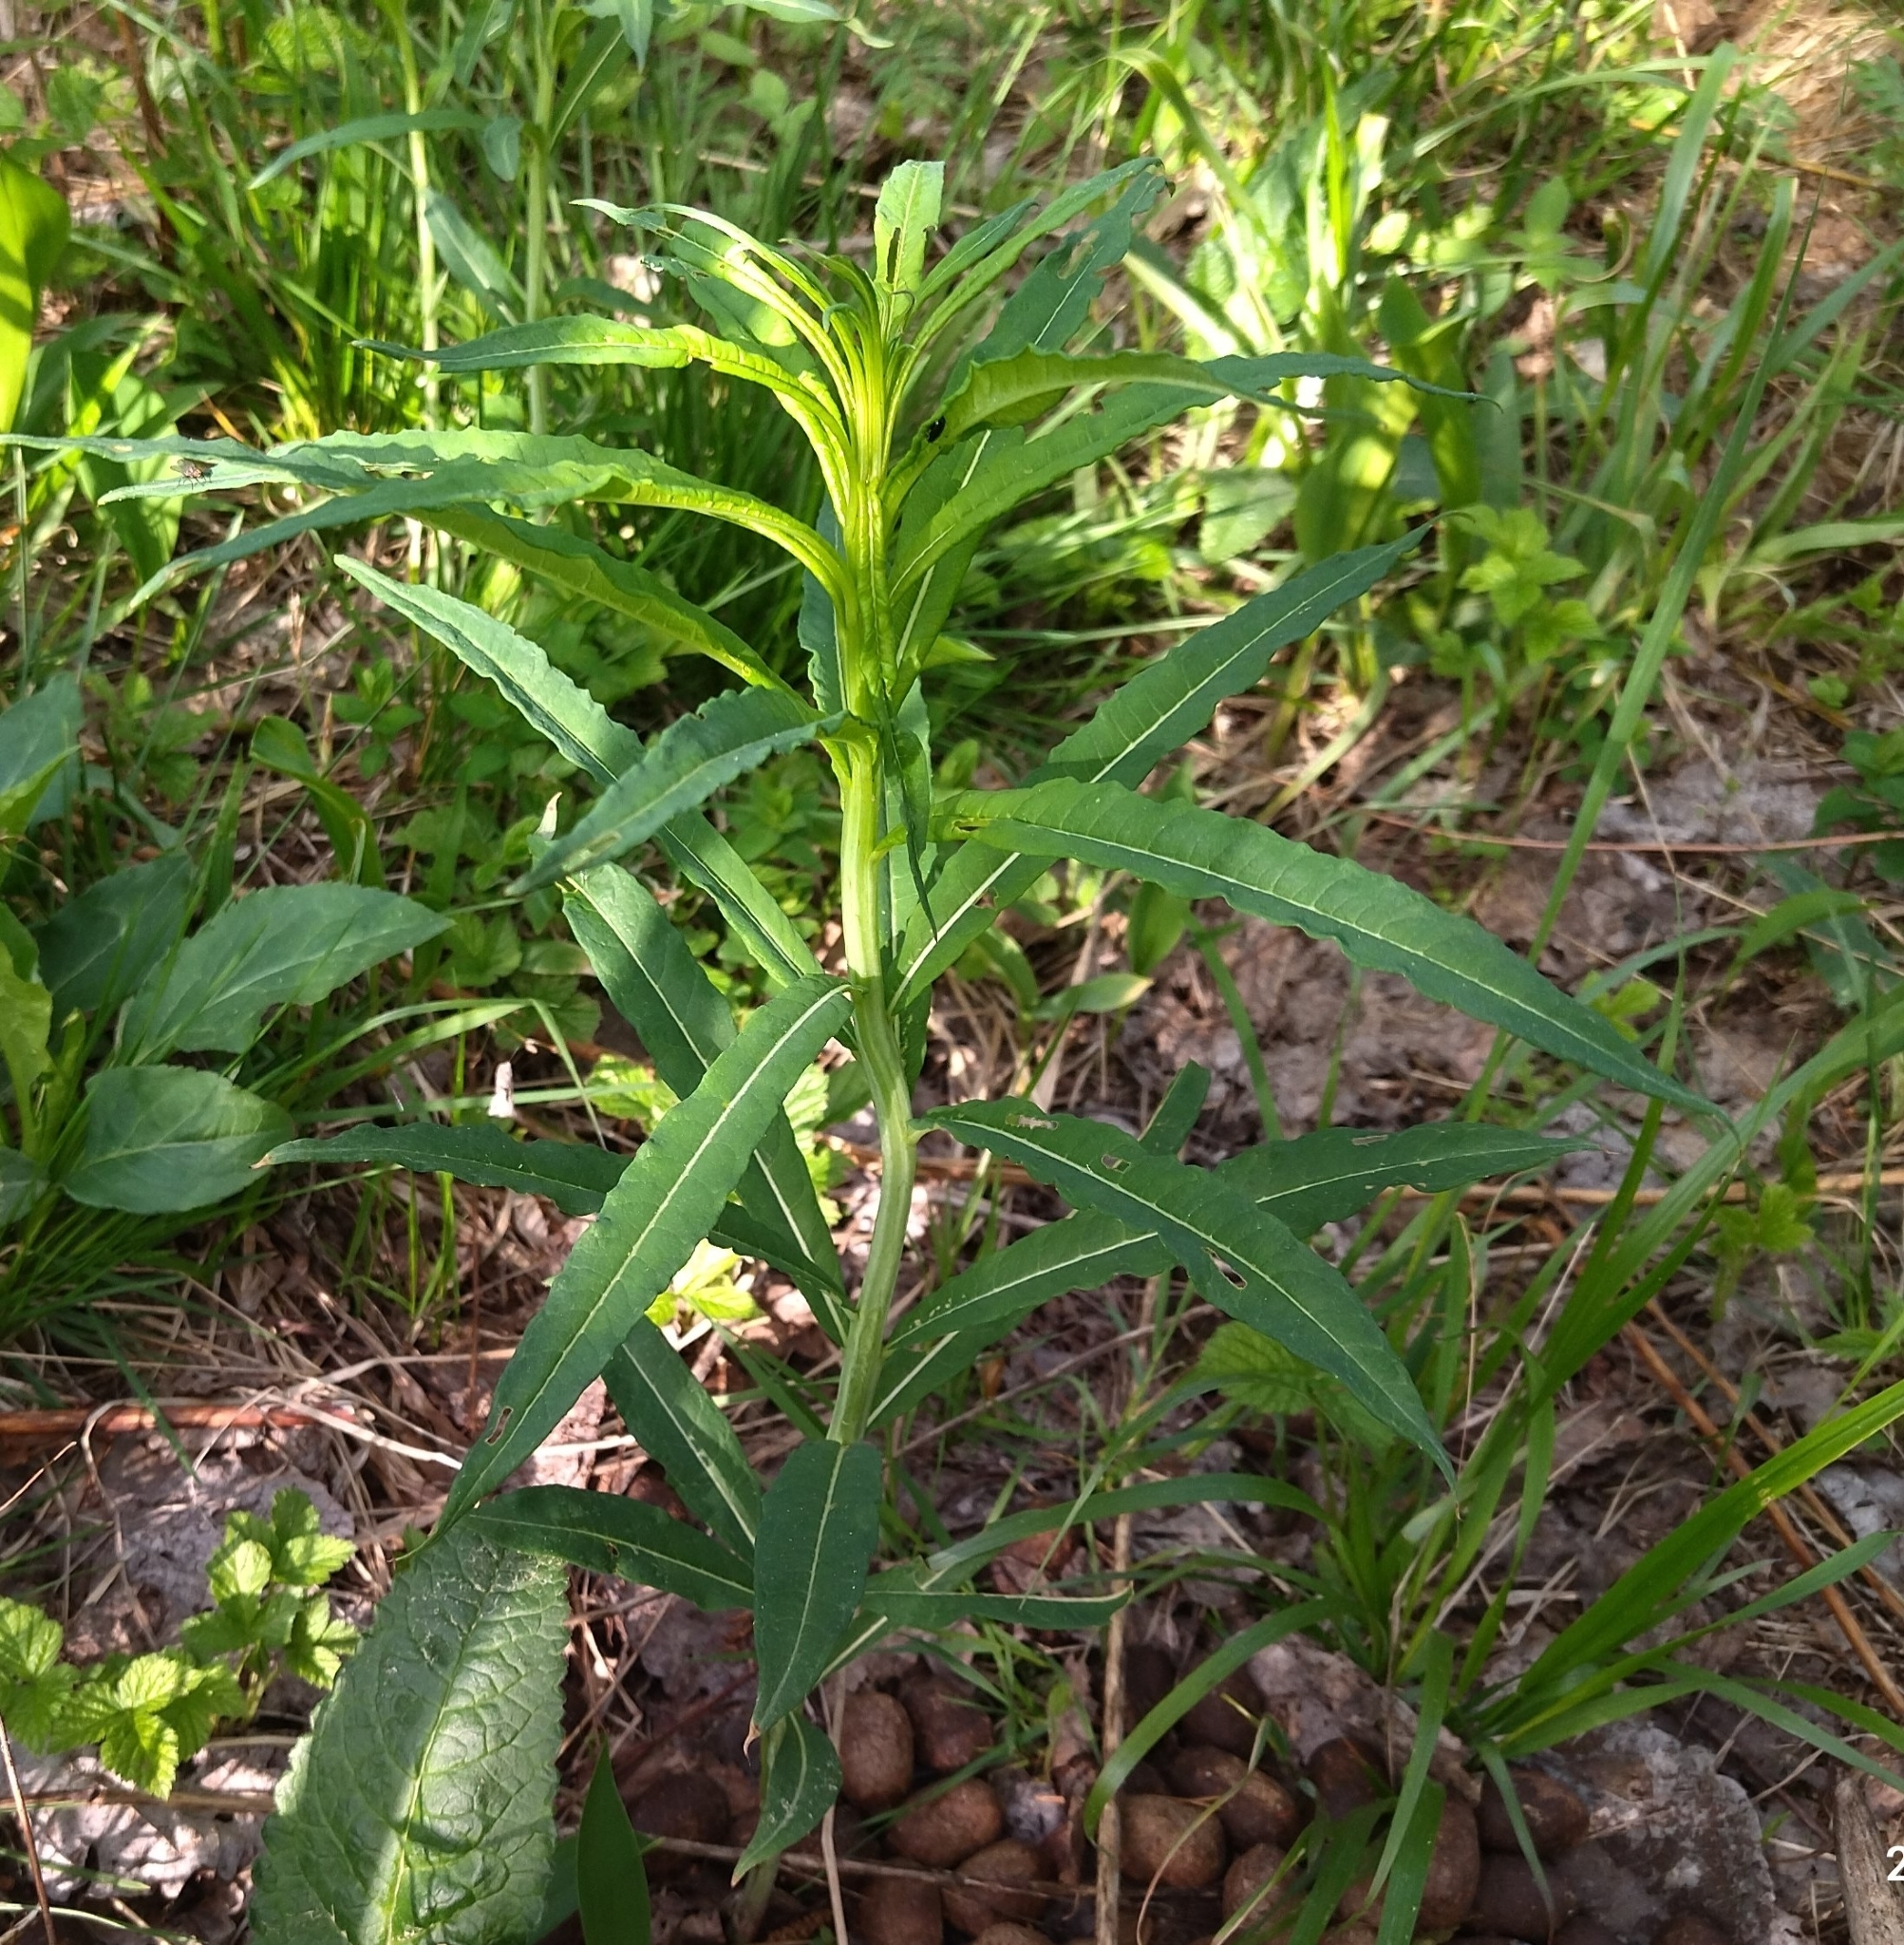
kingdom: Plantae
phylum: Tracheophyta
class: Magnoliopsida
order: Myrtales
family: Onagraceae
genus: Chamaenerion
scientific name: Chamaenerion angustifolium
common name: Fireweed
